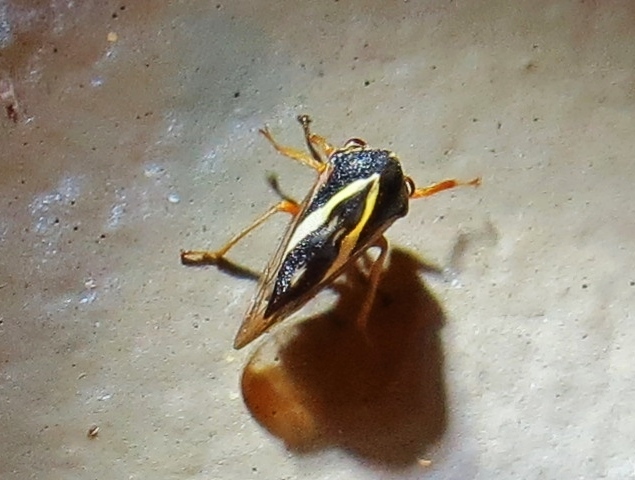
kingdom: Animalia
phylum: Arthropoda
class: Insecta
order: Hemiptera
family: Membracidae
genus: Smilia
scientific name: Smilia camelus
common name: Camel treehopper
